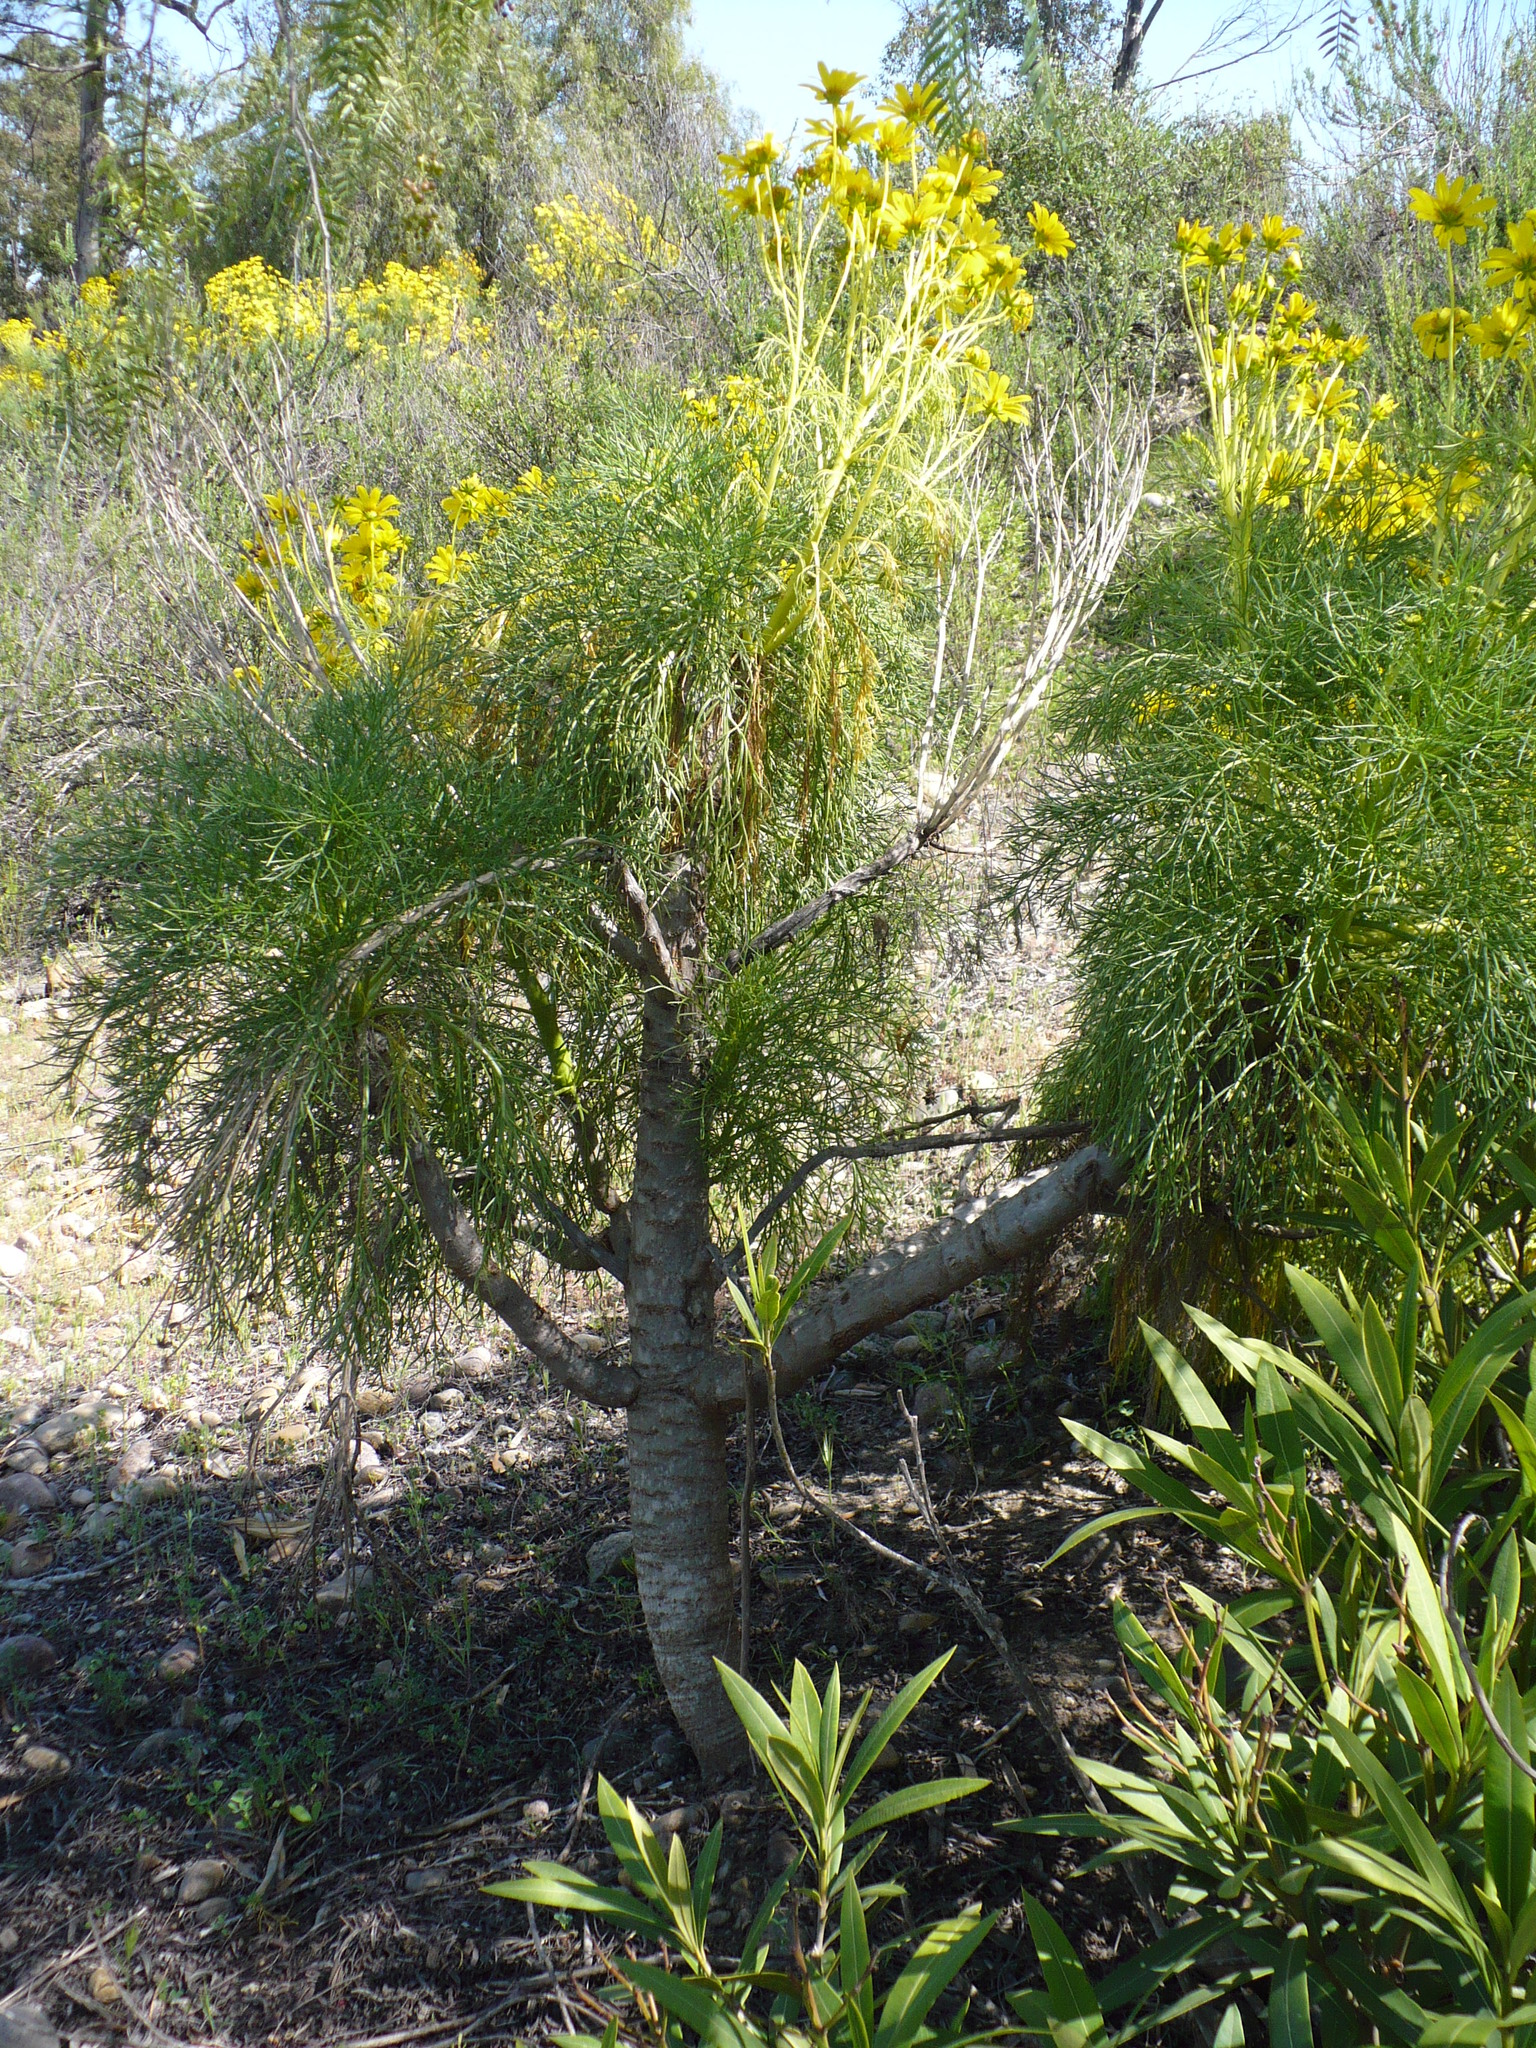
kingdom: Plantae
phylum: Tracheophyta
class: Magnoliopsida
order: Asterales
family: Asteraceae
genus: Coreopsis
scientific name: Coreopsis gigantea
